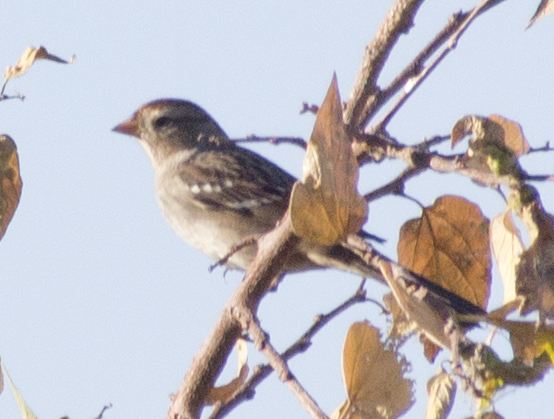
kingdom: Animalia
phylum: Chordata
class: Aves
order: Passeriformes
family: Passerellidae
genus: Zonotrichia
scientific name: Zonotrichia leucophrys
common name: White-crowned sparrow
